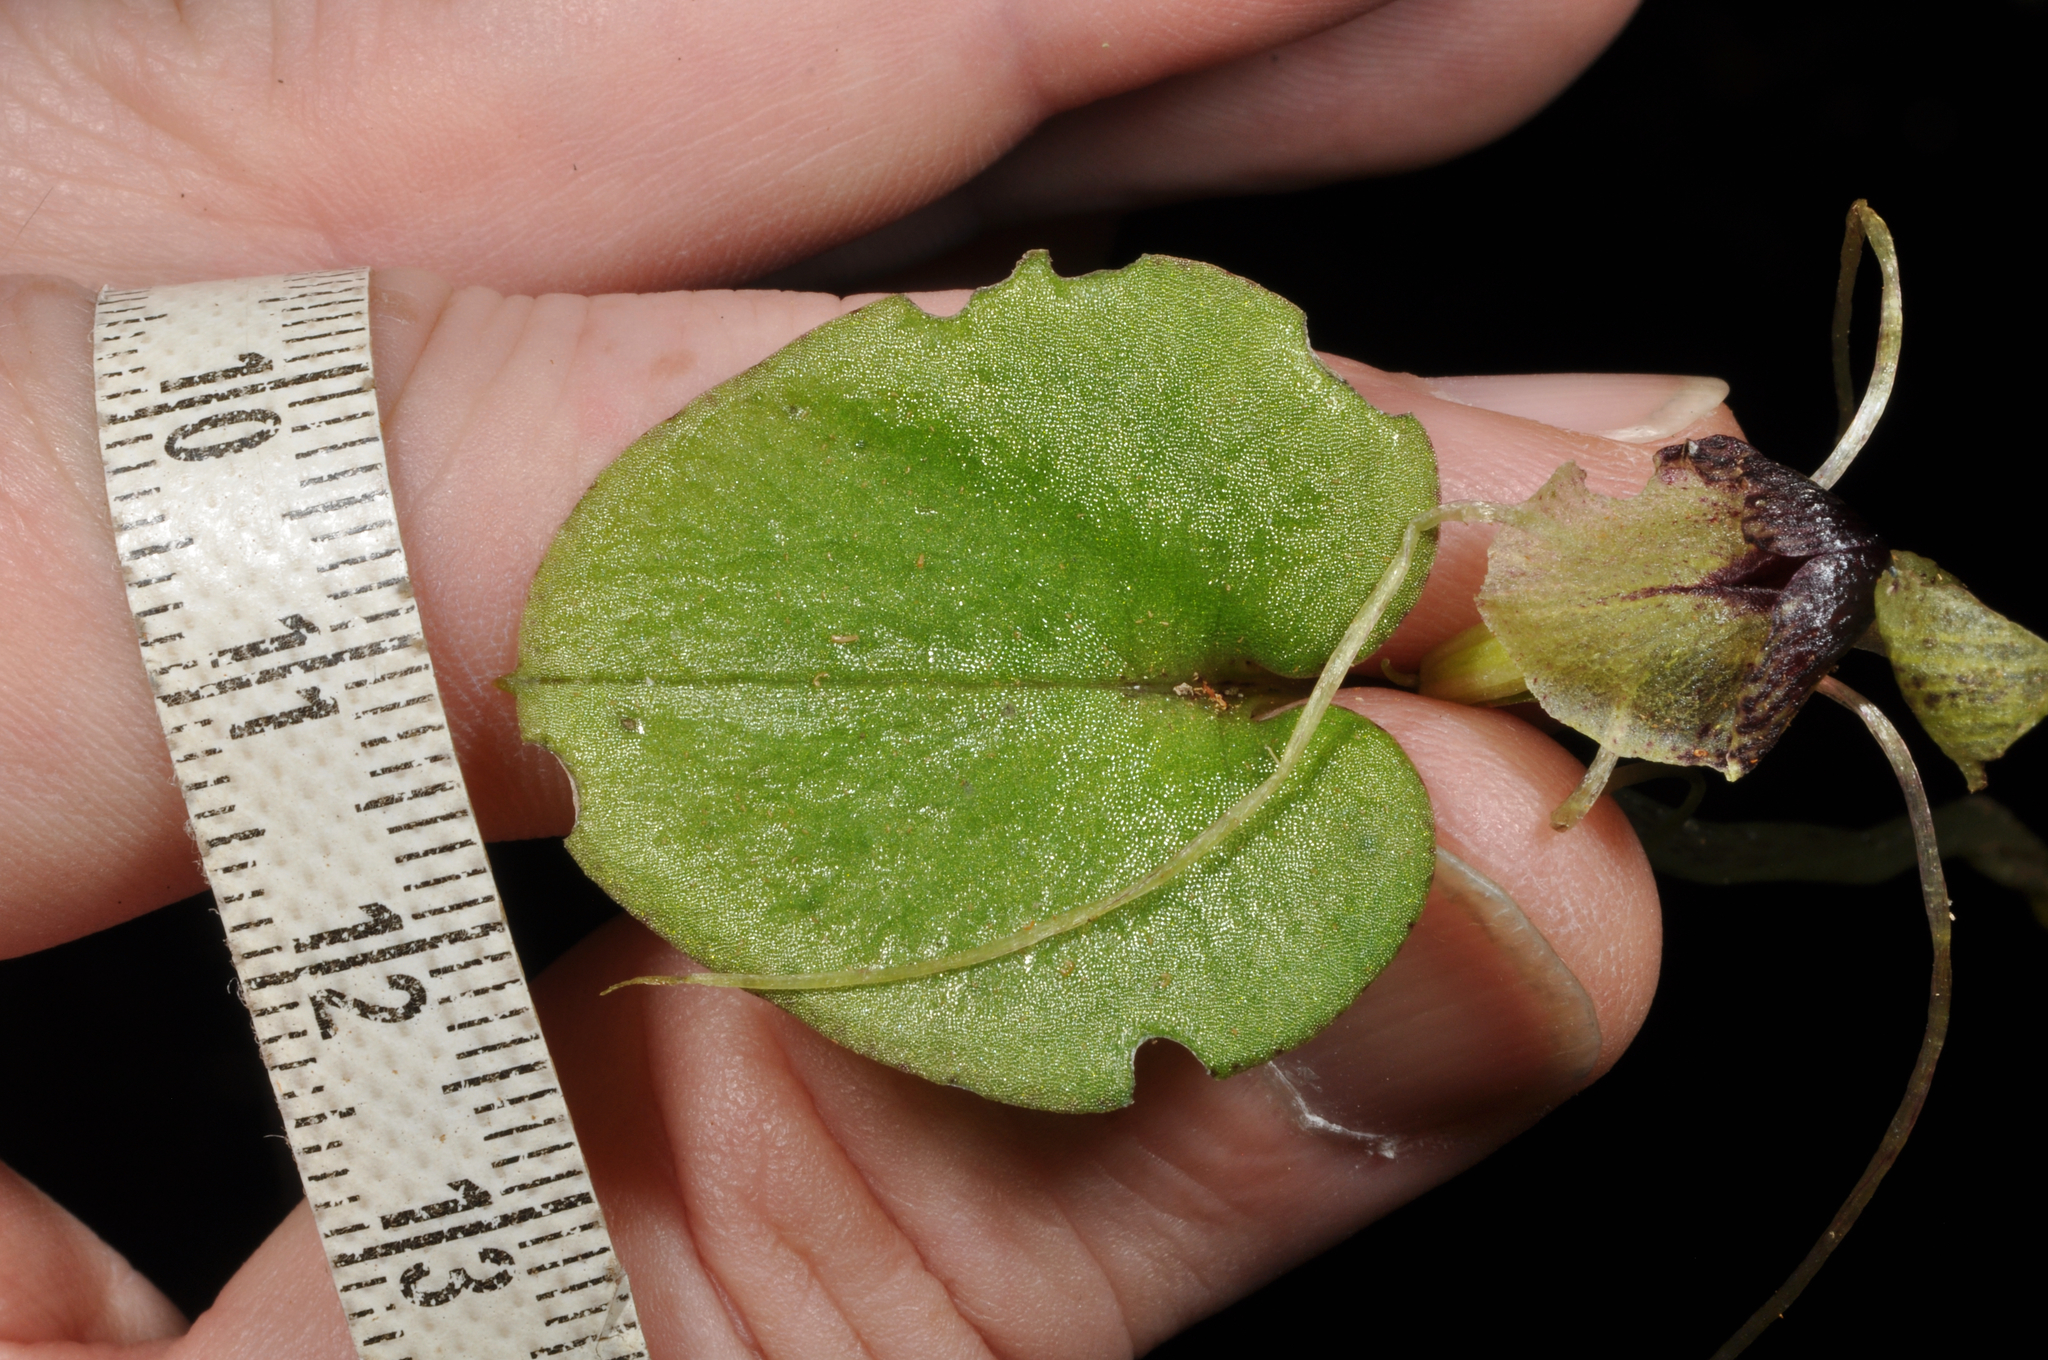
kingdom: Plantae
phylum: Tracheophyta
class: Liliopsida
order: Asparagales
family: Orchidaceae
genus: Corybas
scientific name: Corybas rivularis
